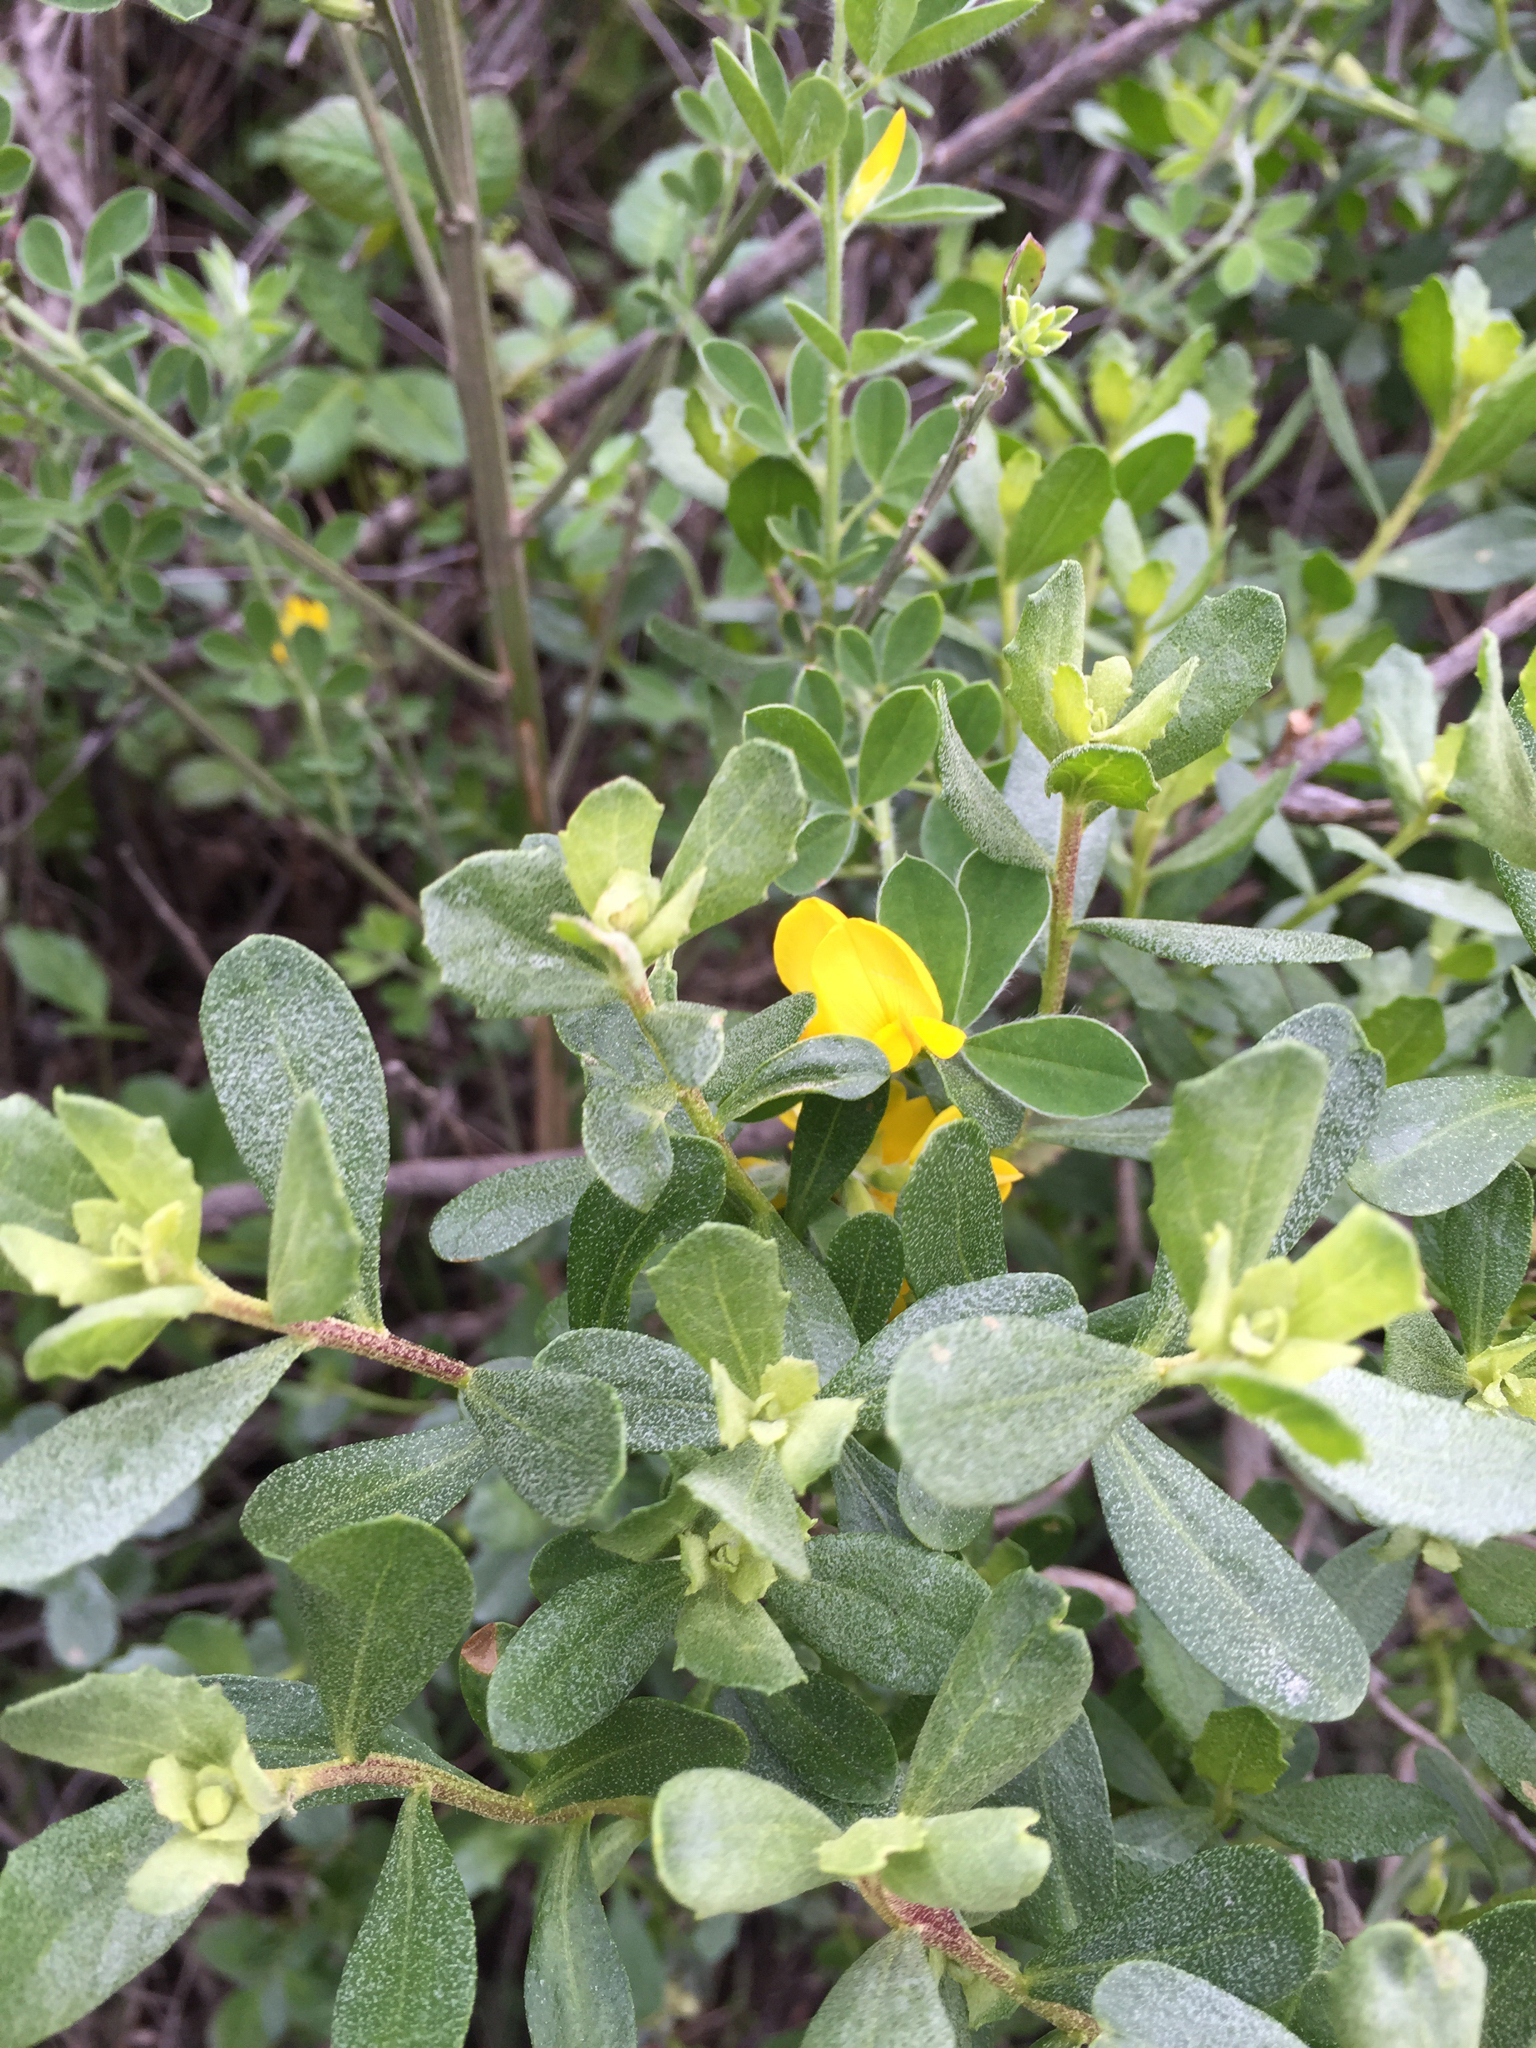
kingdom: Plantae
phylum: Tracheophyta
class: Magnoliopsida
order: Fabales
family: Fabaceae
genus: Genista
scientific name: Genista monspessulana
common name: Montpellier broom
